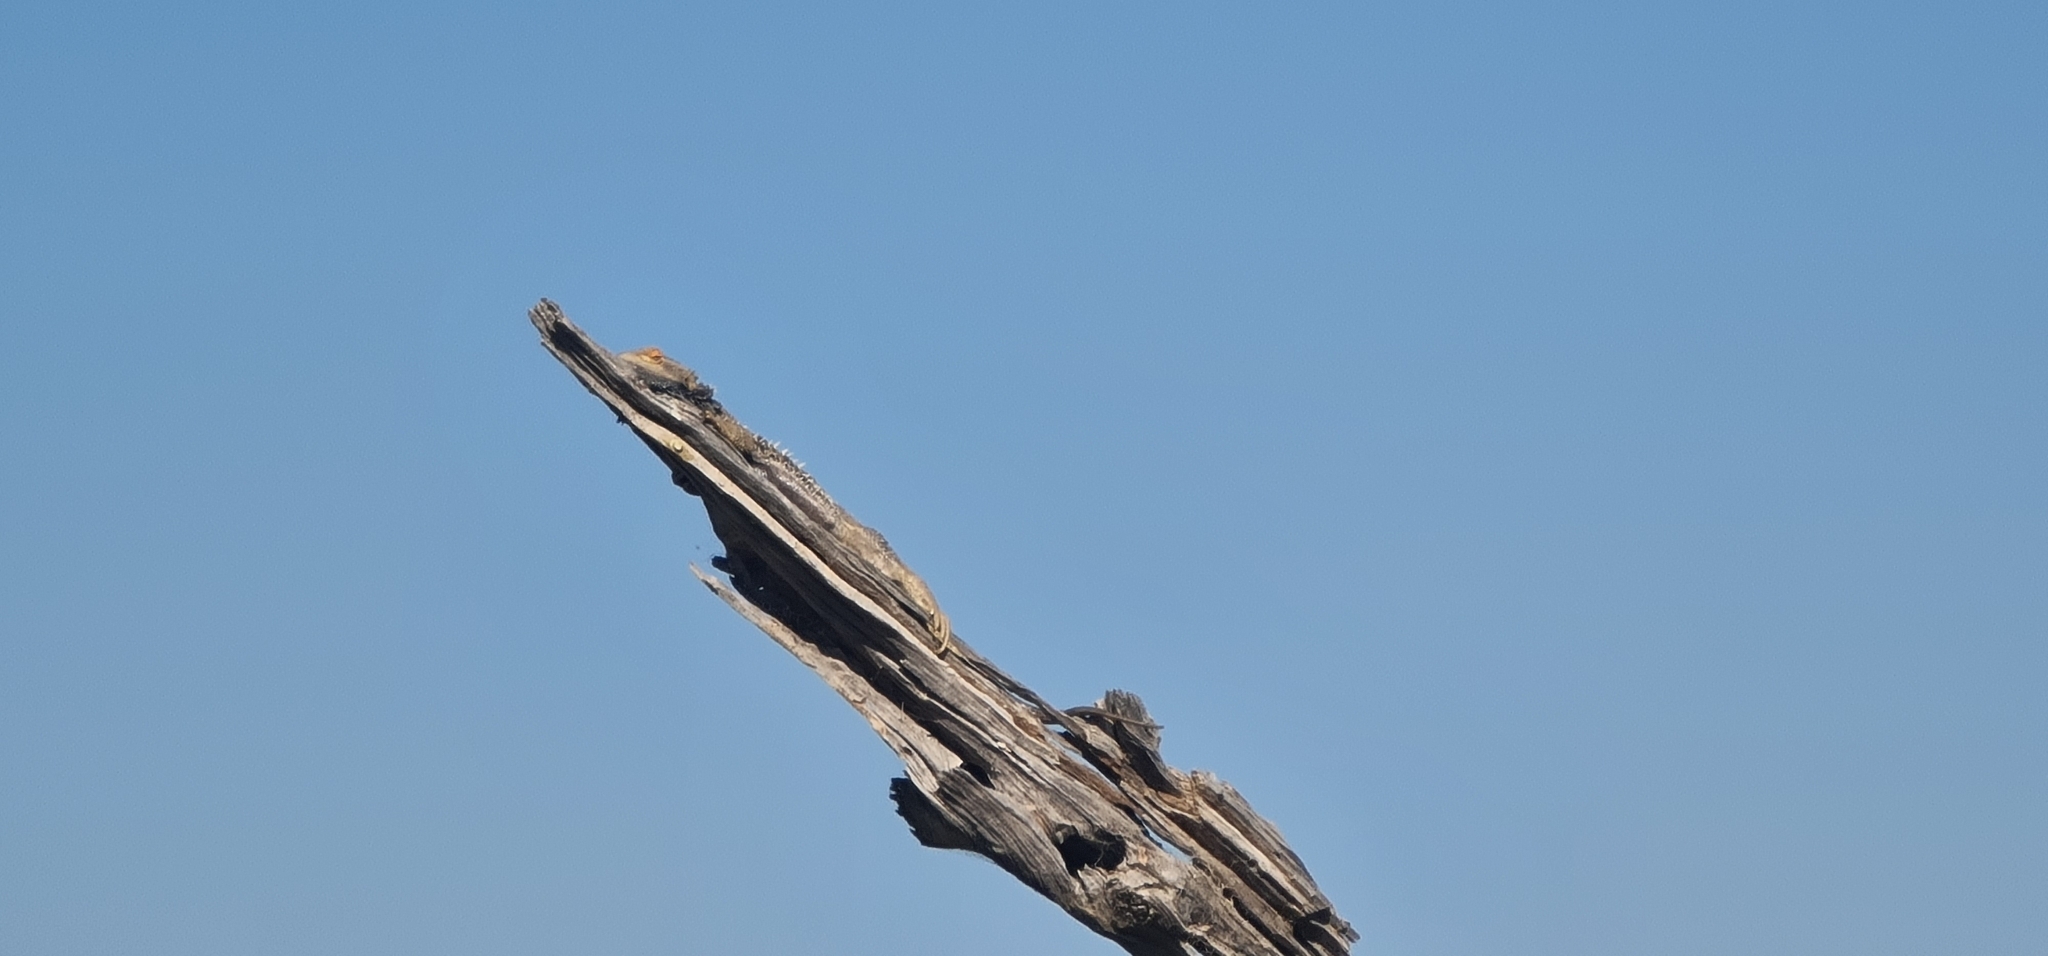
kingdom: Animalia
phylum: Chordata
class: Squamata
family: Agamidae
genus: Pogona
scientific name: Pogona vitticeps
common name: Central bearded dragon
